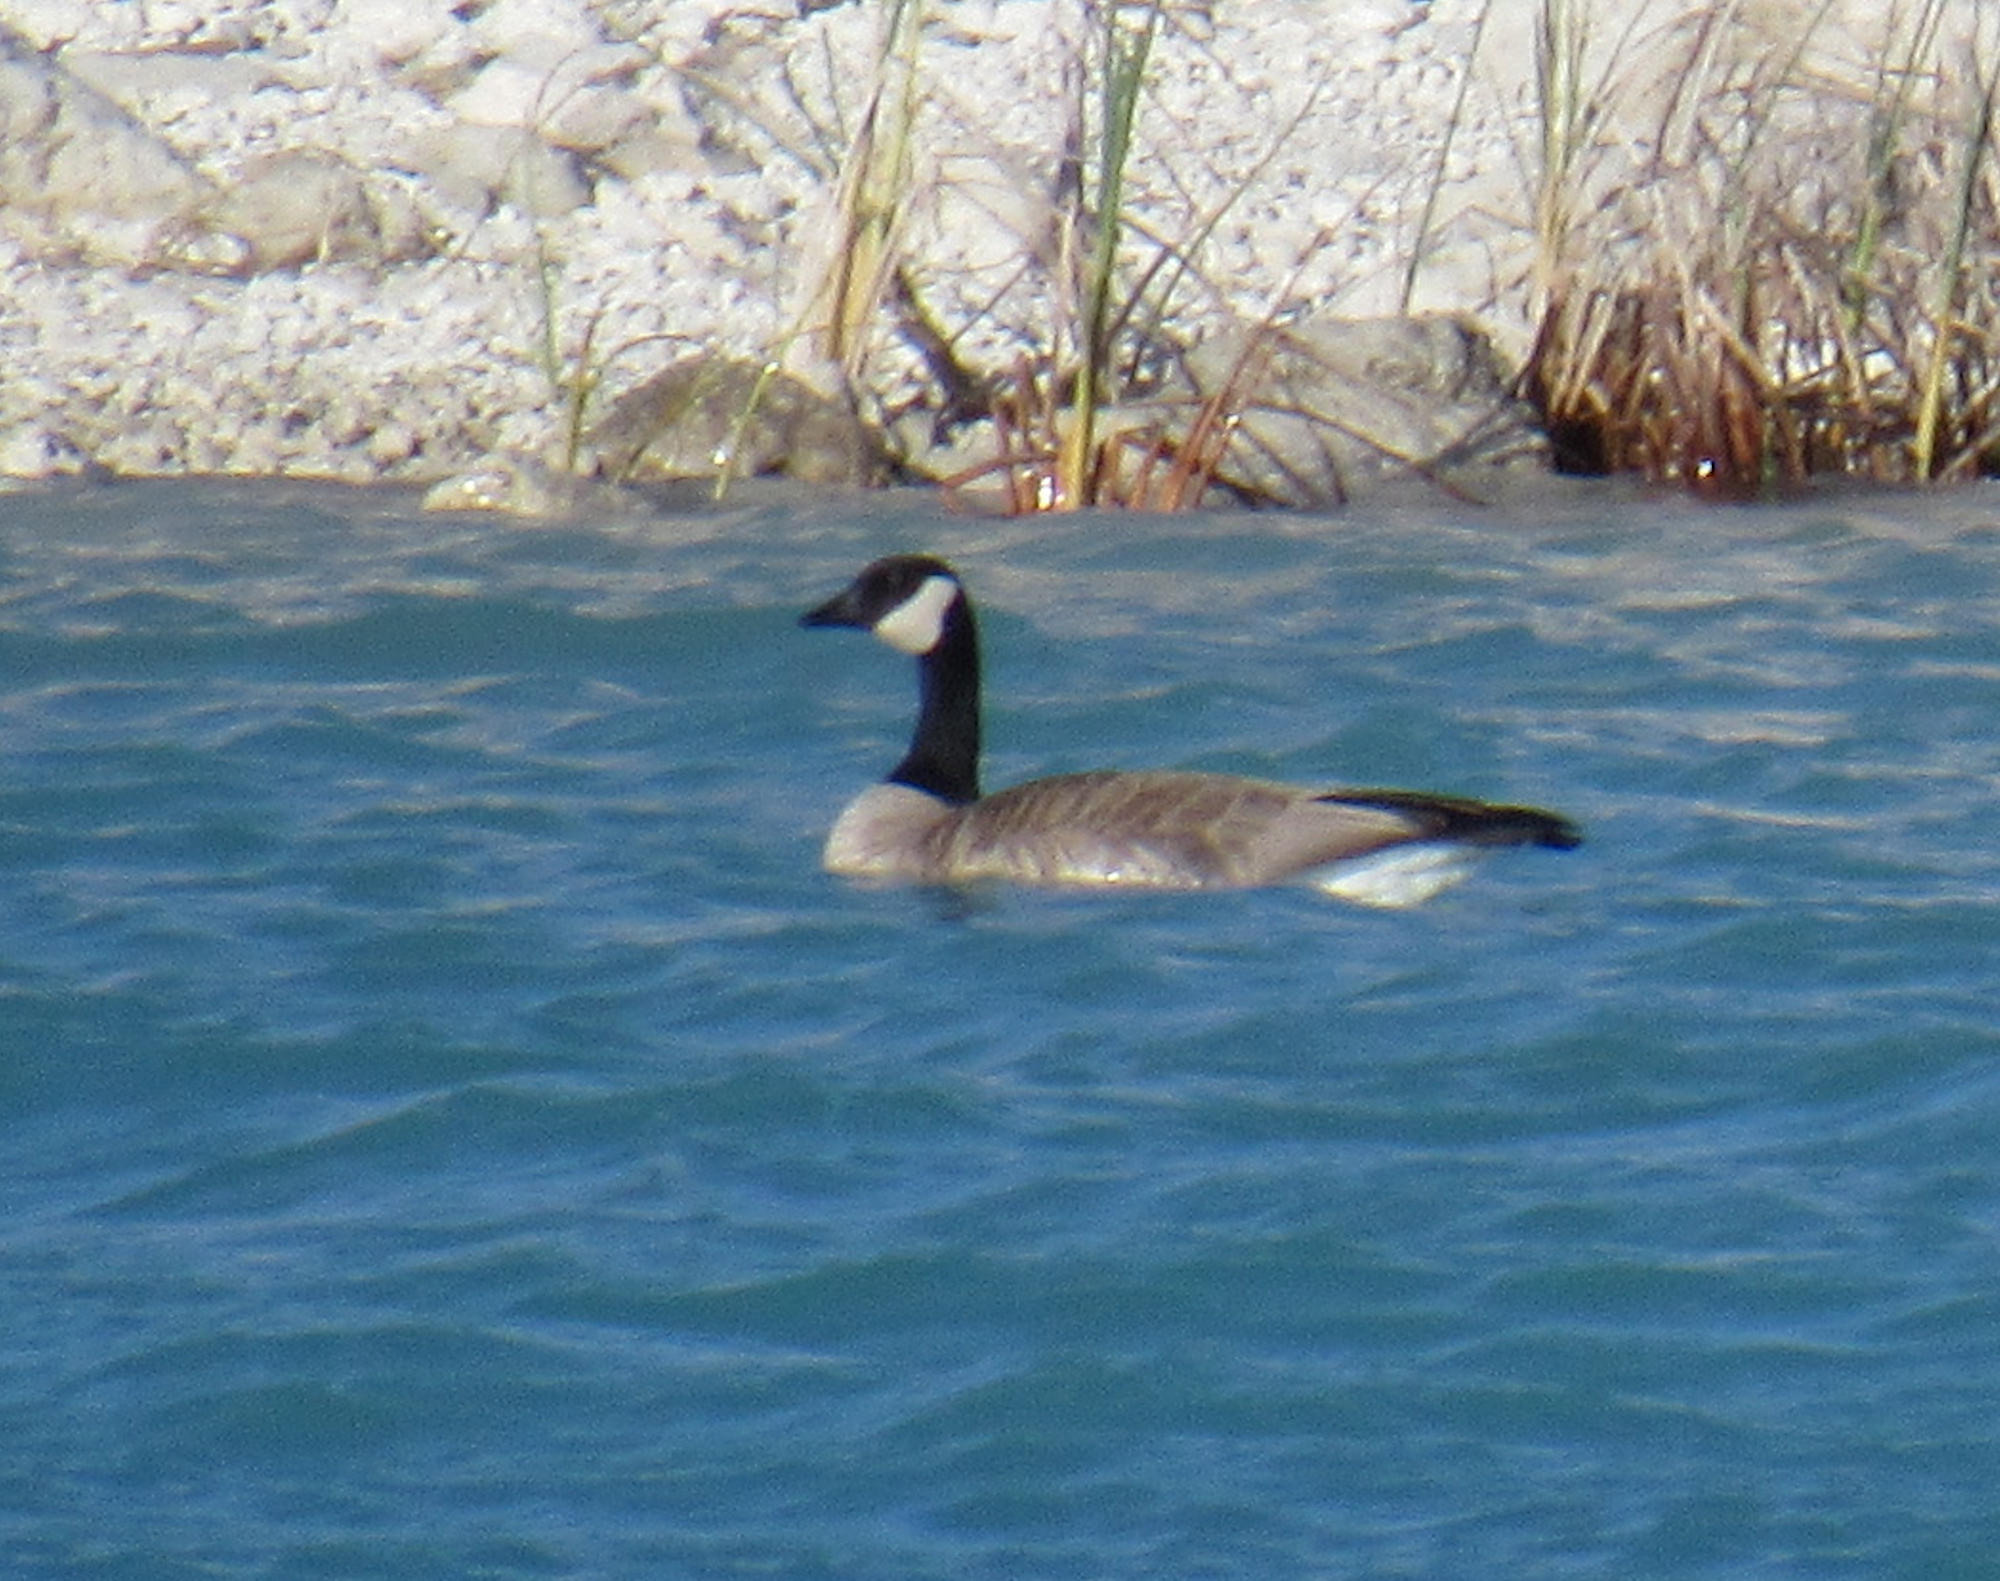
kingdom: Animalia
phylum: Chordata
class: Aves
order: Anseriformes
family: Anatidae
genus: Branta
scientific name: Branta canadensis
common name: Canada goose
